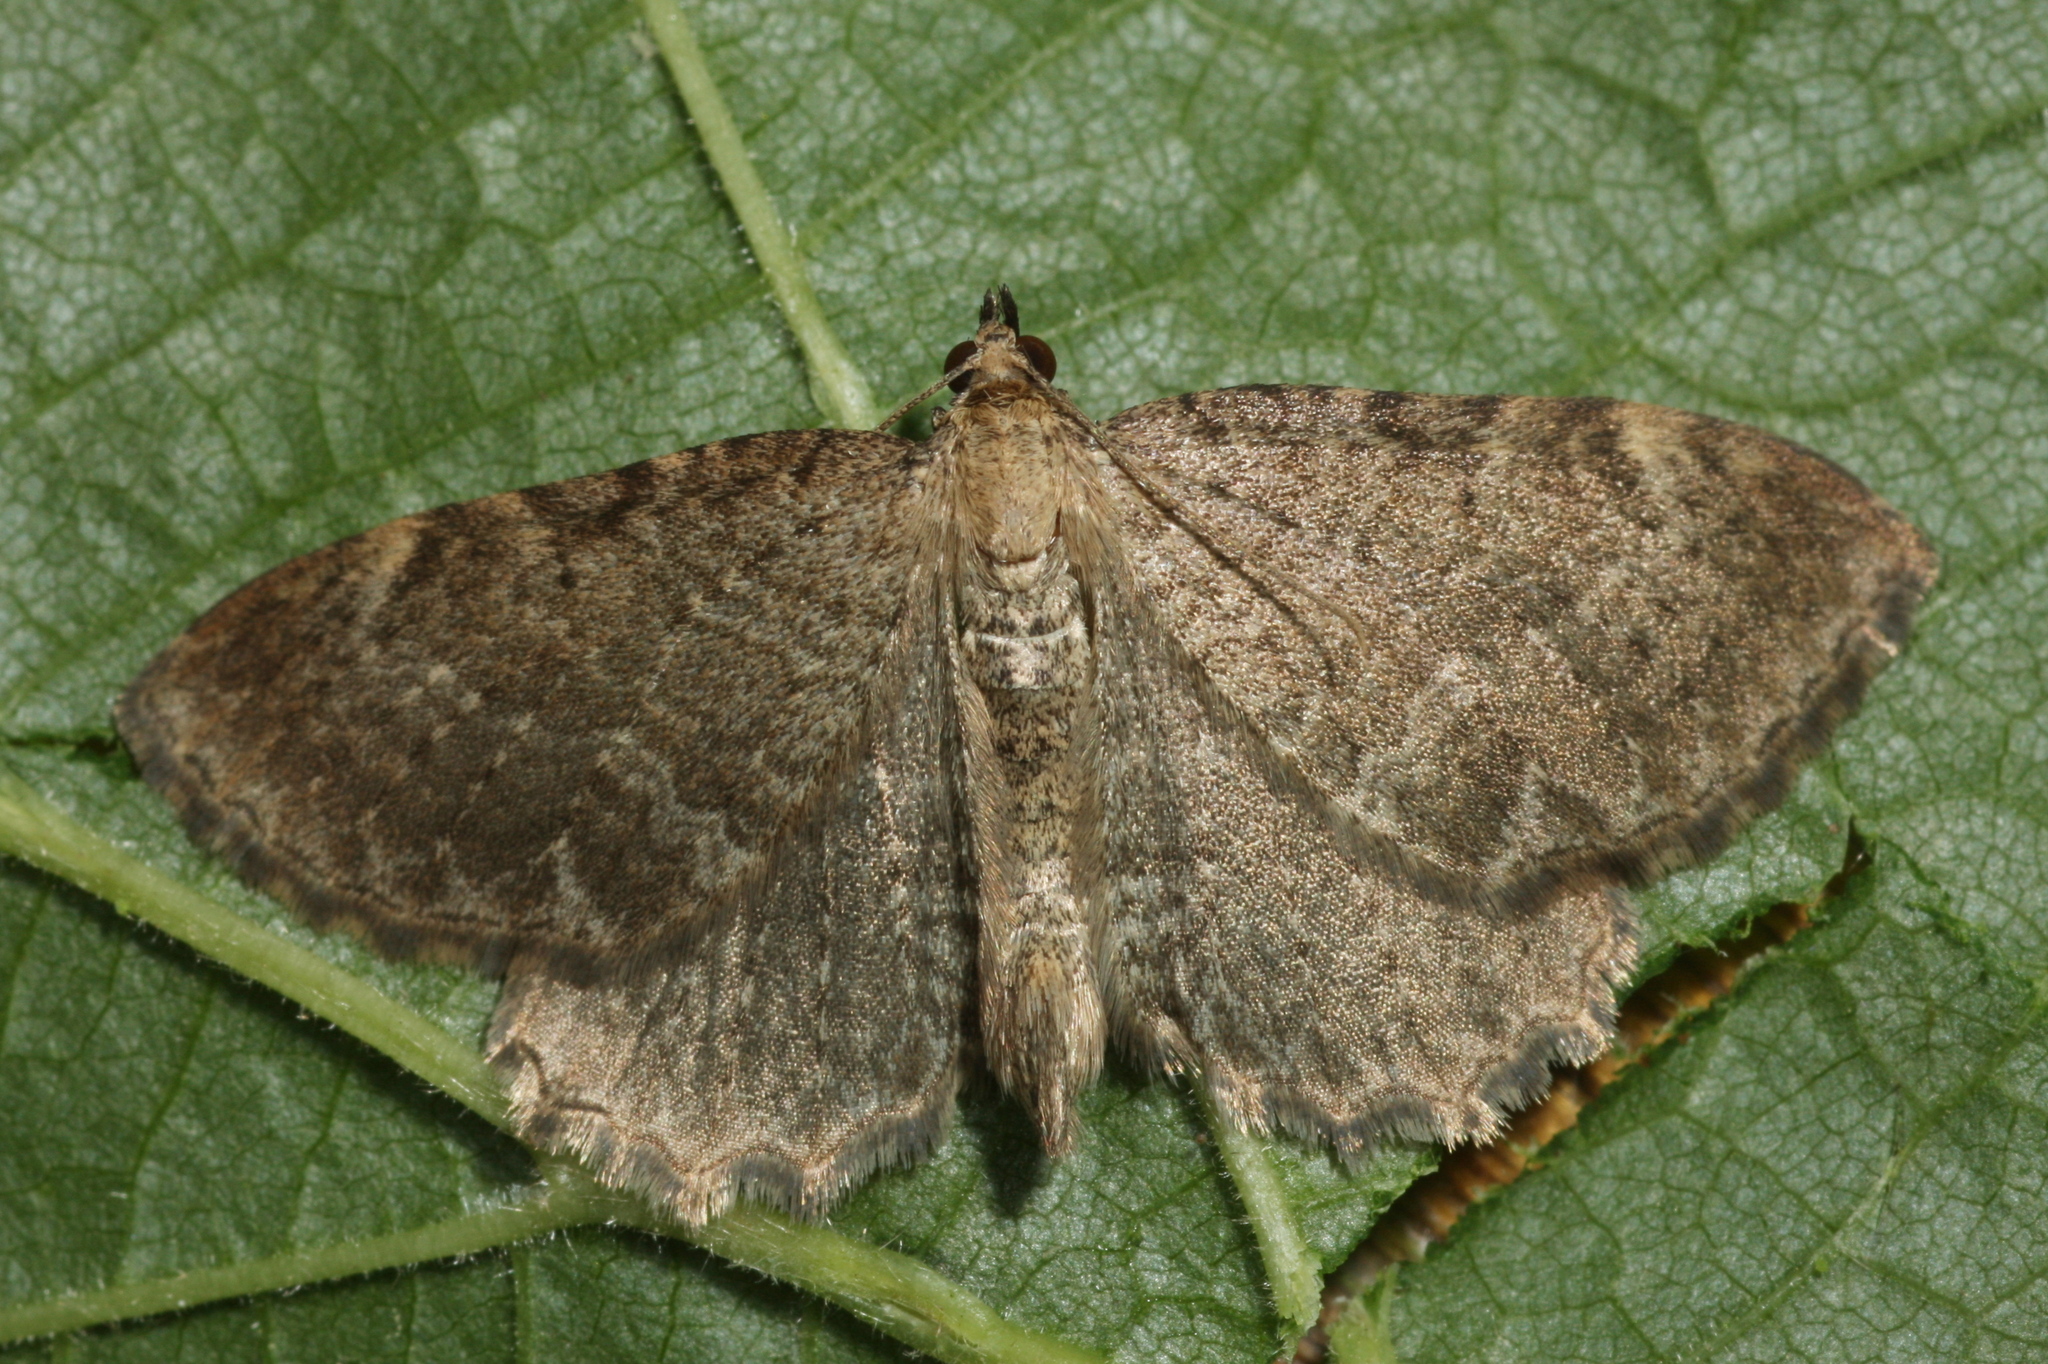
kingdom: Animalia
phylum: Arthropoda
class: Insecta
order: Lepidoptera
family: Geometridae
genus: Philereme
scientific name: Philereme vetulata
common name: Brown scallop
